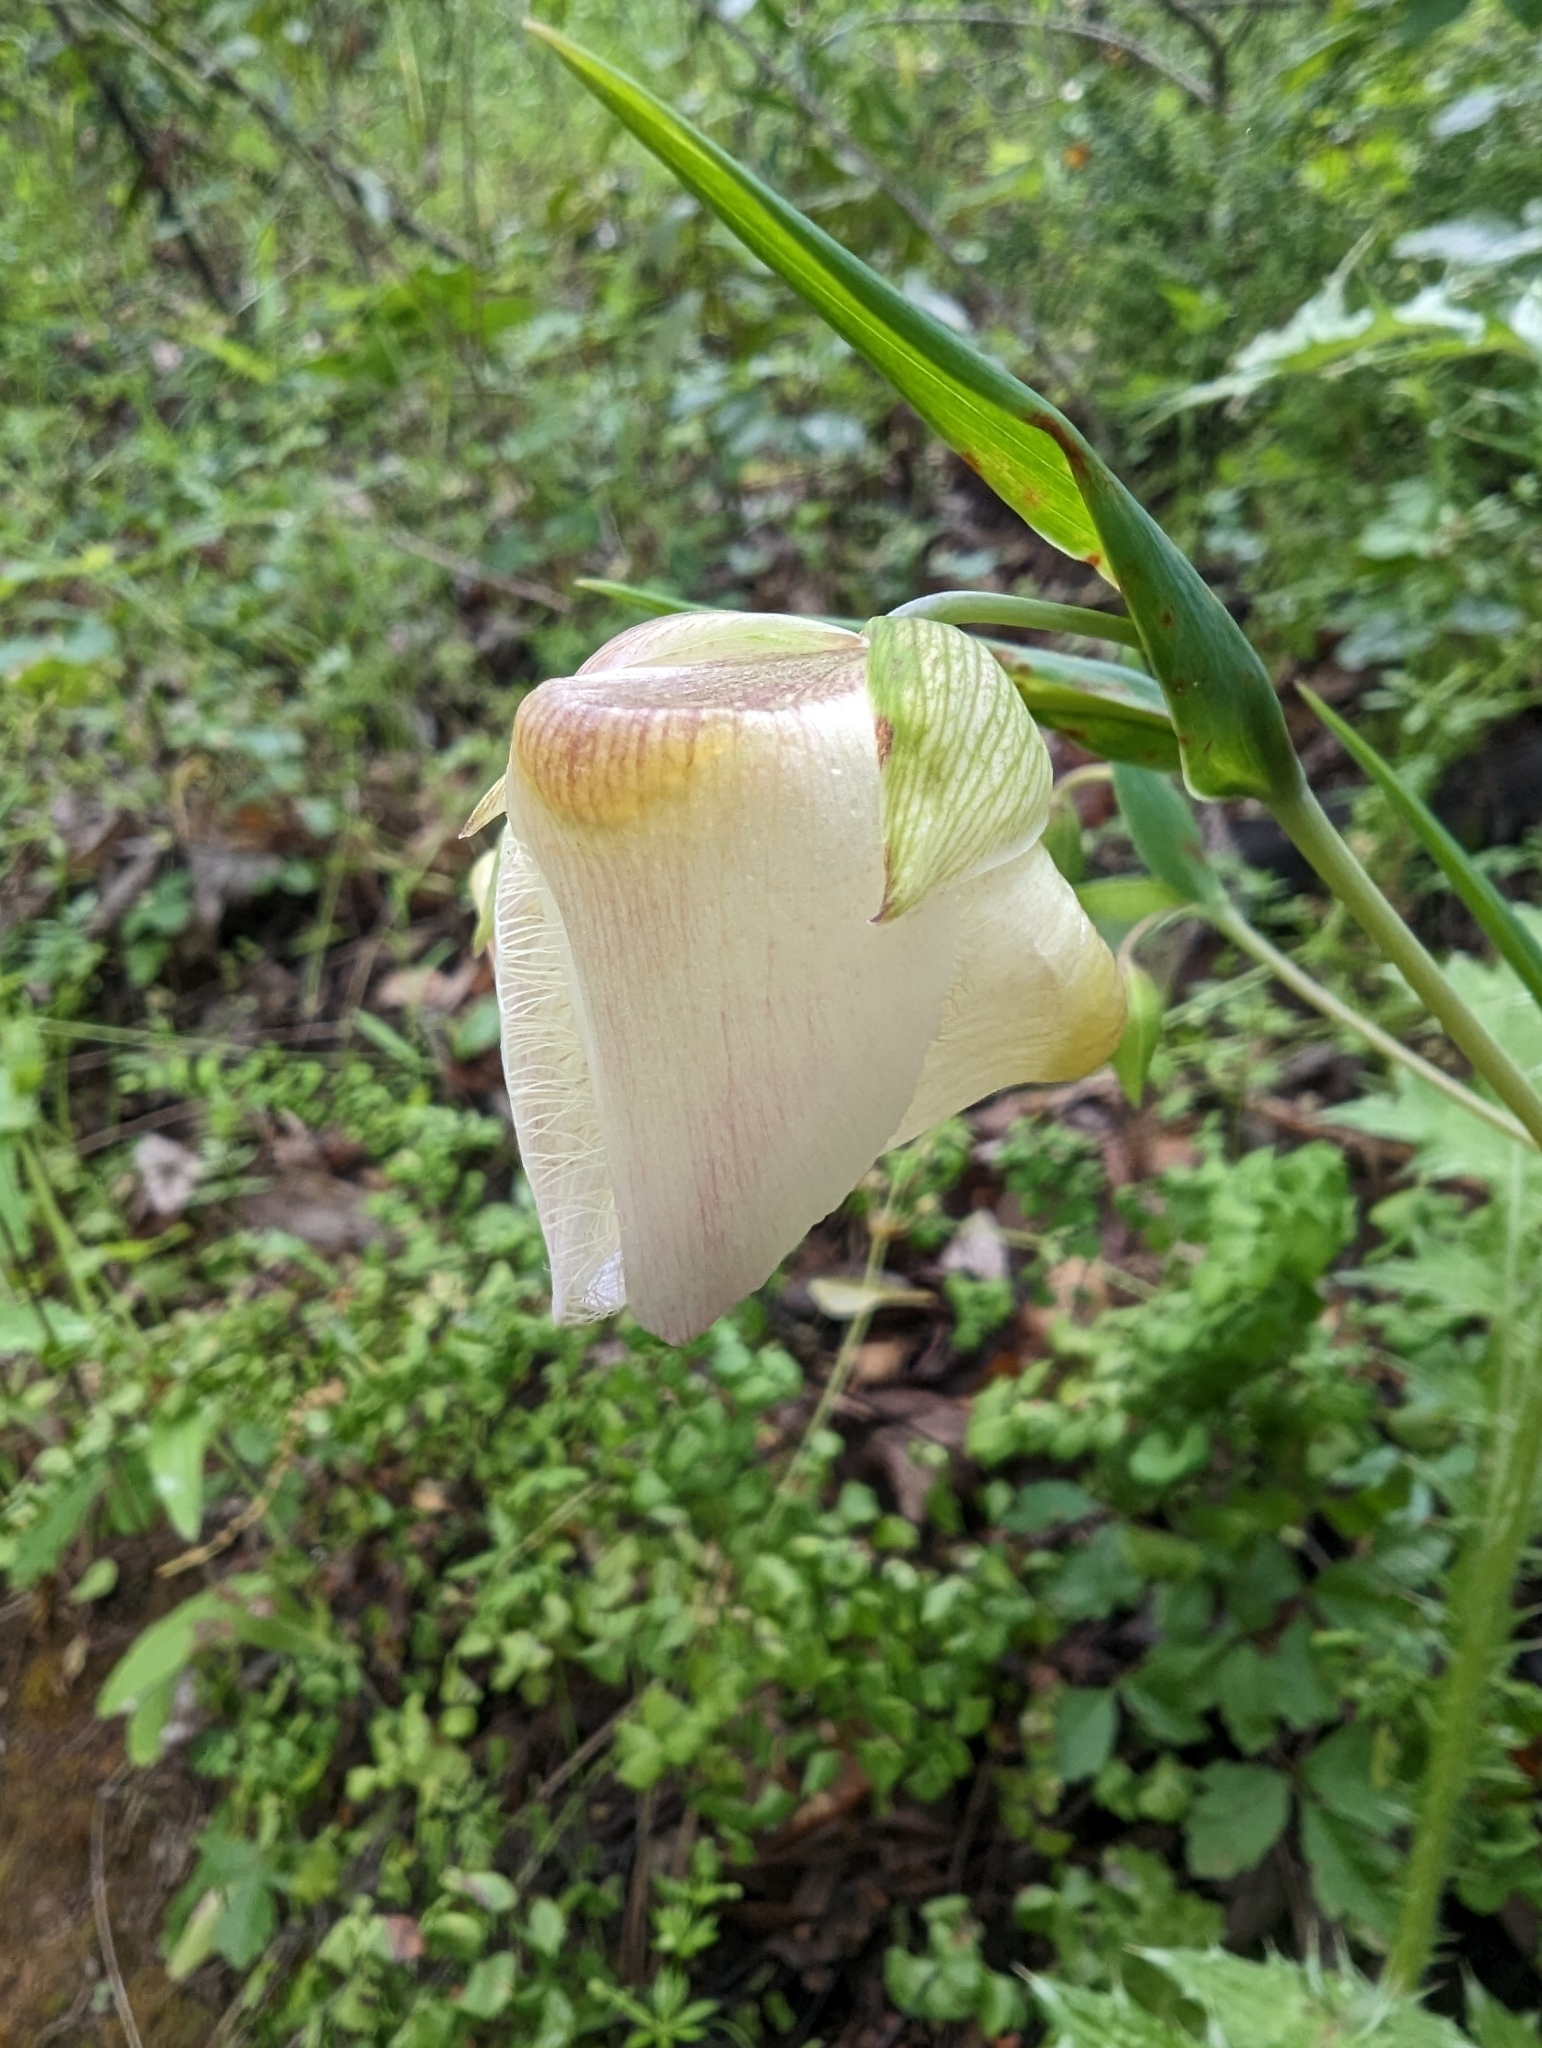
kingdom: Plantae
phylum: Tracheophyta
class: Liliopsida
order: Liliales
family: Liliaceae
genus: Calochortus
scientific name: Calochortus albus
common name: Fairy-lantern
